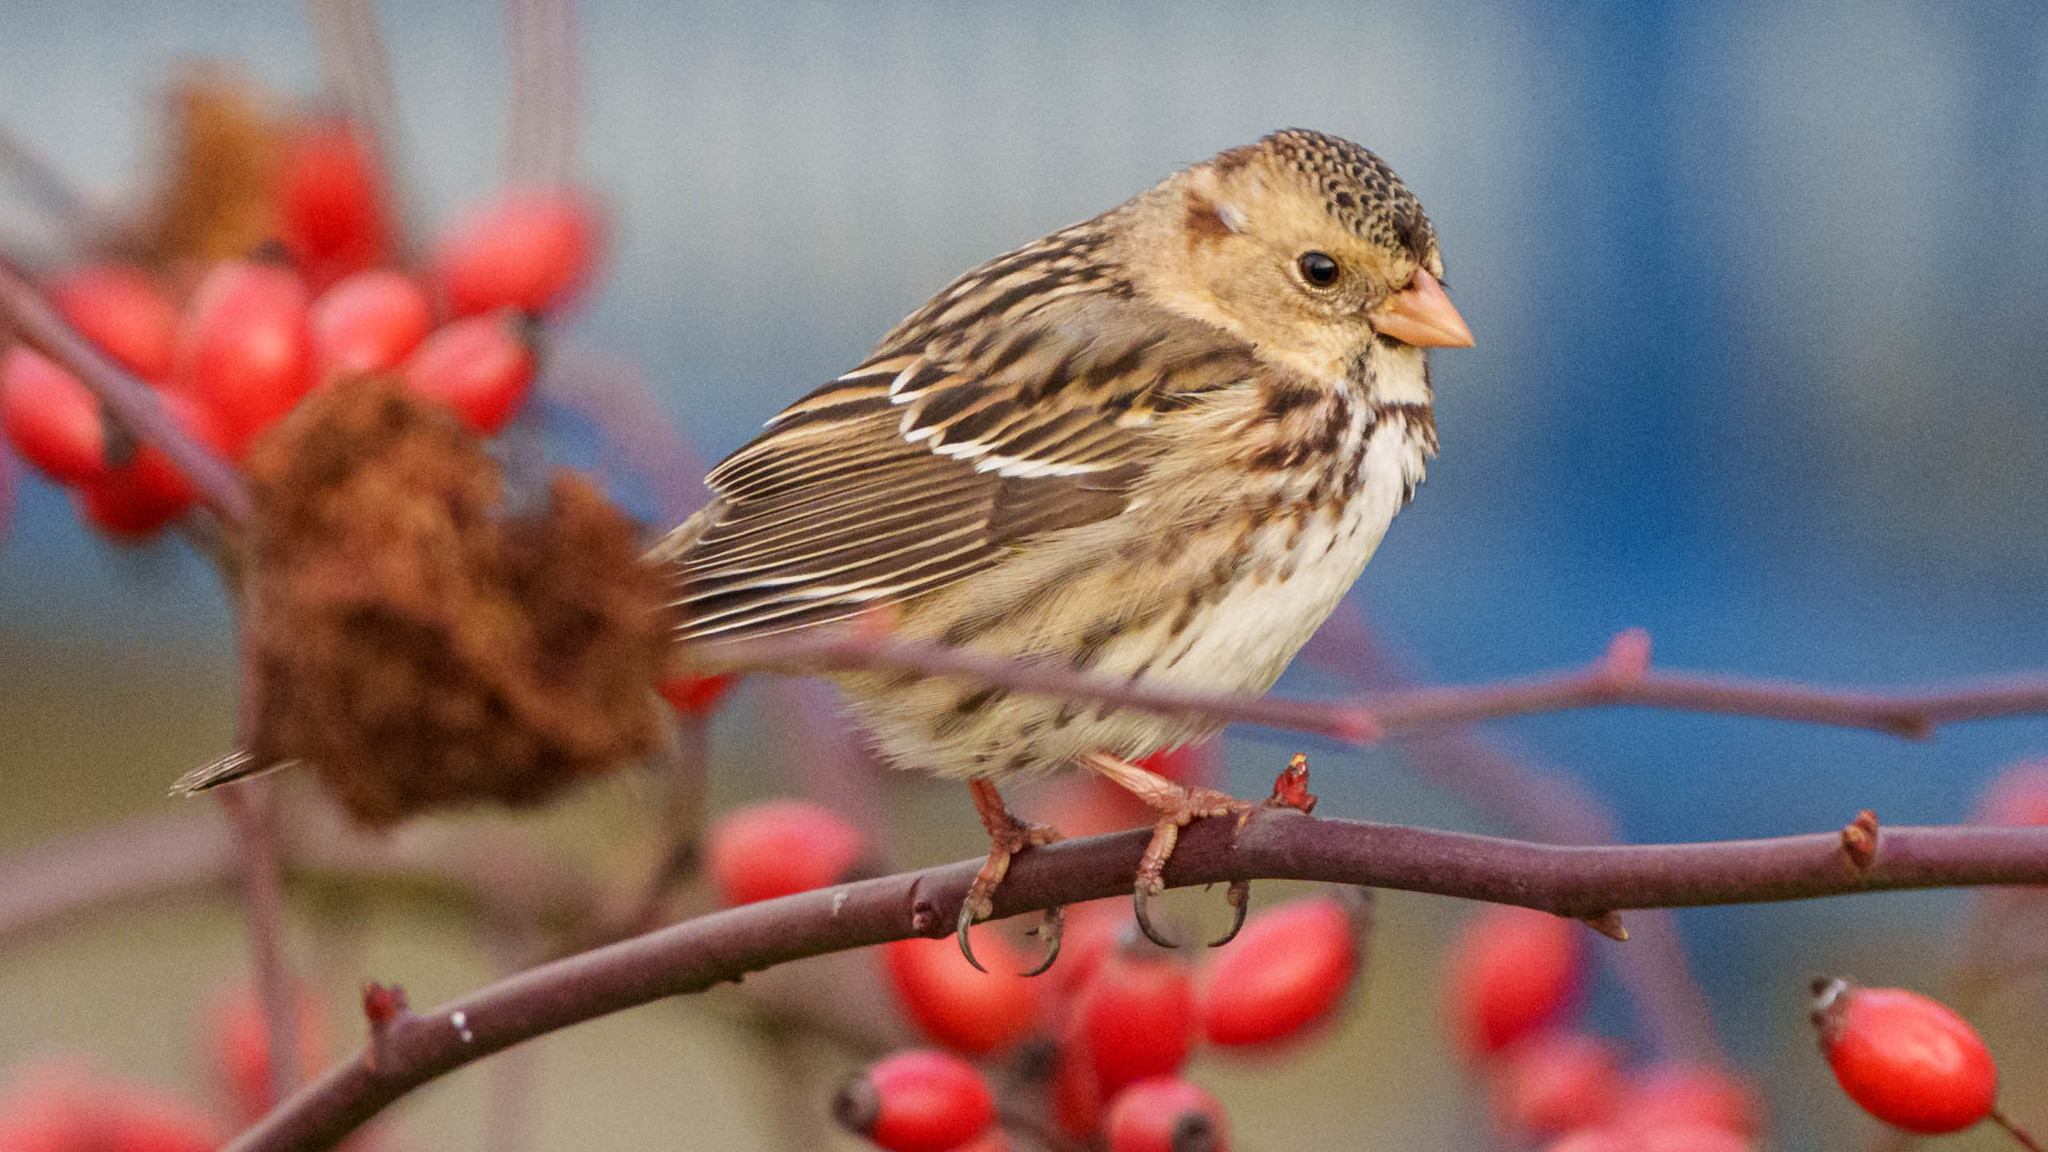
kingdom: Animalia
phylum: Chordata
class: Aves
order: Passeriformes
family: Passerellidae
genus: Zonotrichia
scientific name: Zonotrichia querula
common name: Harris's sparrow
